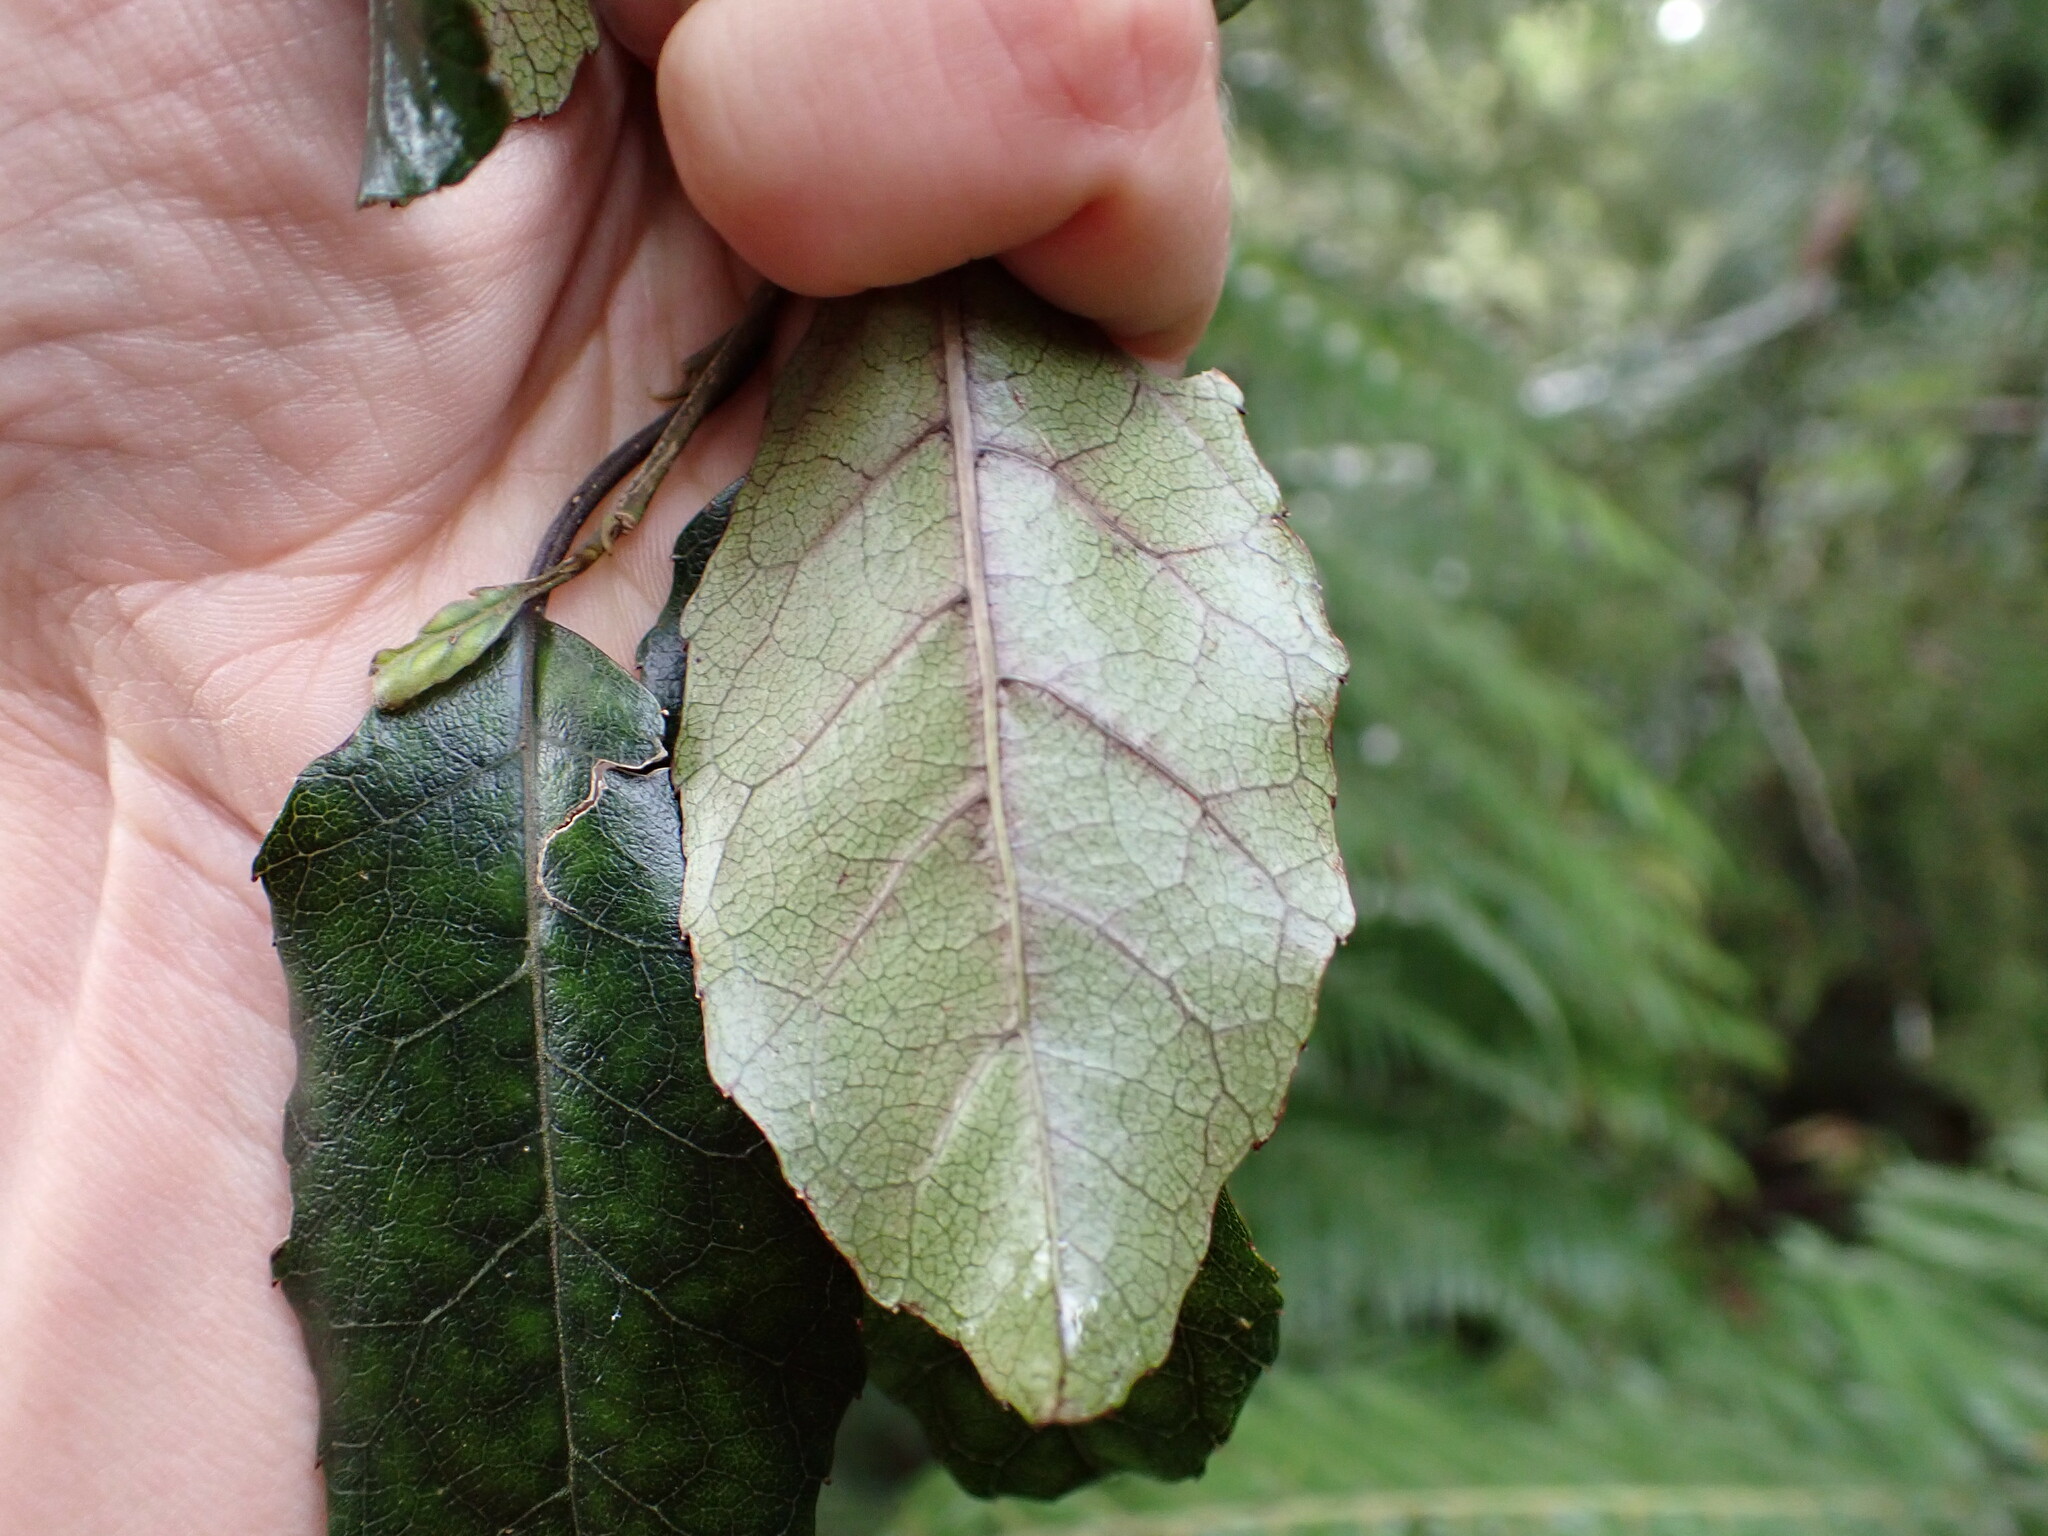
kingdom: Plantae
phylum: Tracheophyta
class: Magnoliopsida
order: Asterales
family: Rousseaceae
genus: Carpodetus
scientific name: Carpodetus serratus
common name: White mapau
